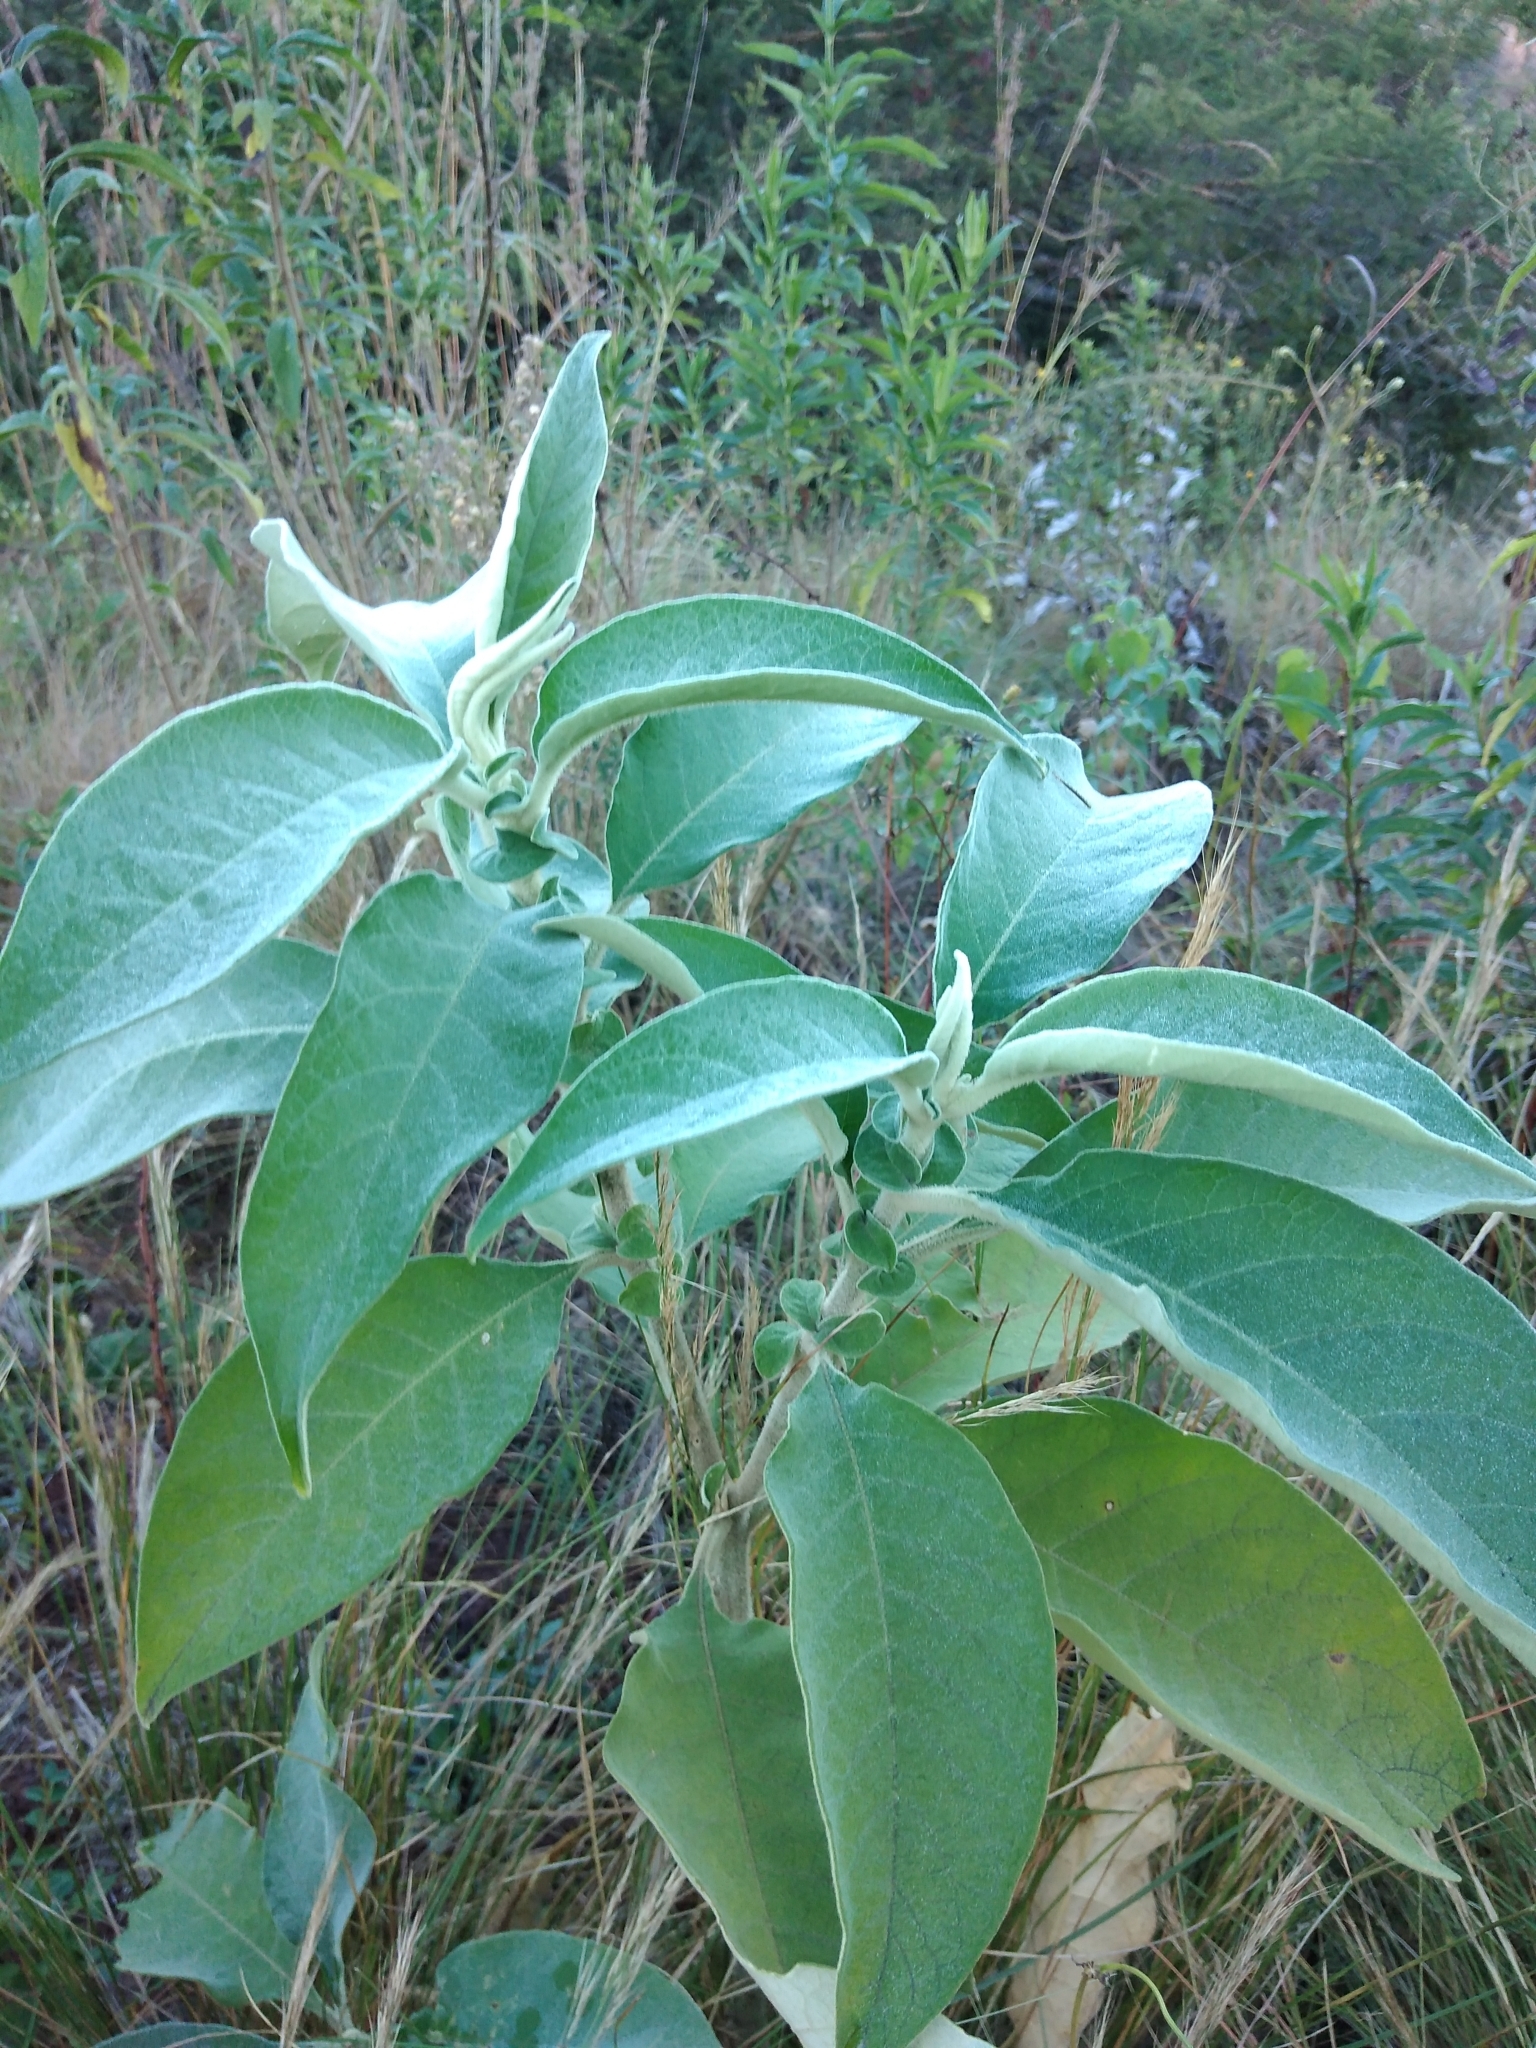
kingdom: Plantae
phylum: Tracheophyta
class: Magnoliopsida
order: Solanales
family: Solanaceae
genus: Solanum
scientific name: Solanum mauritianum
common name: Earleaf nightshade
